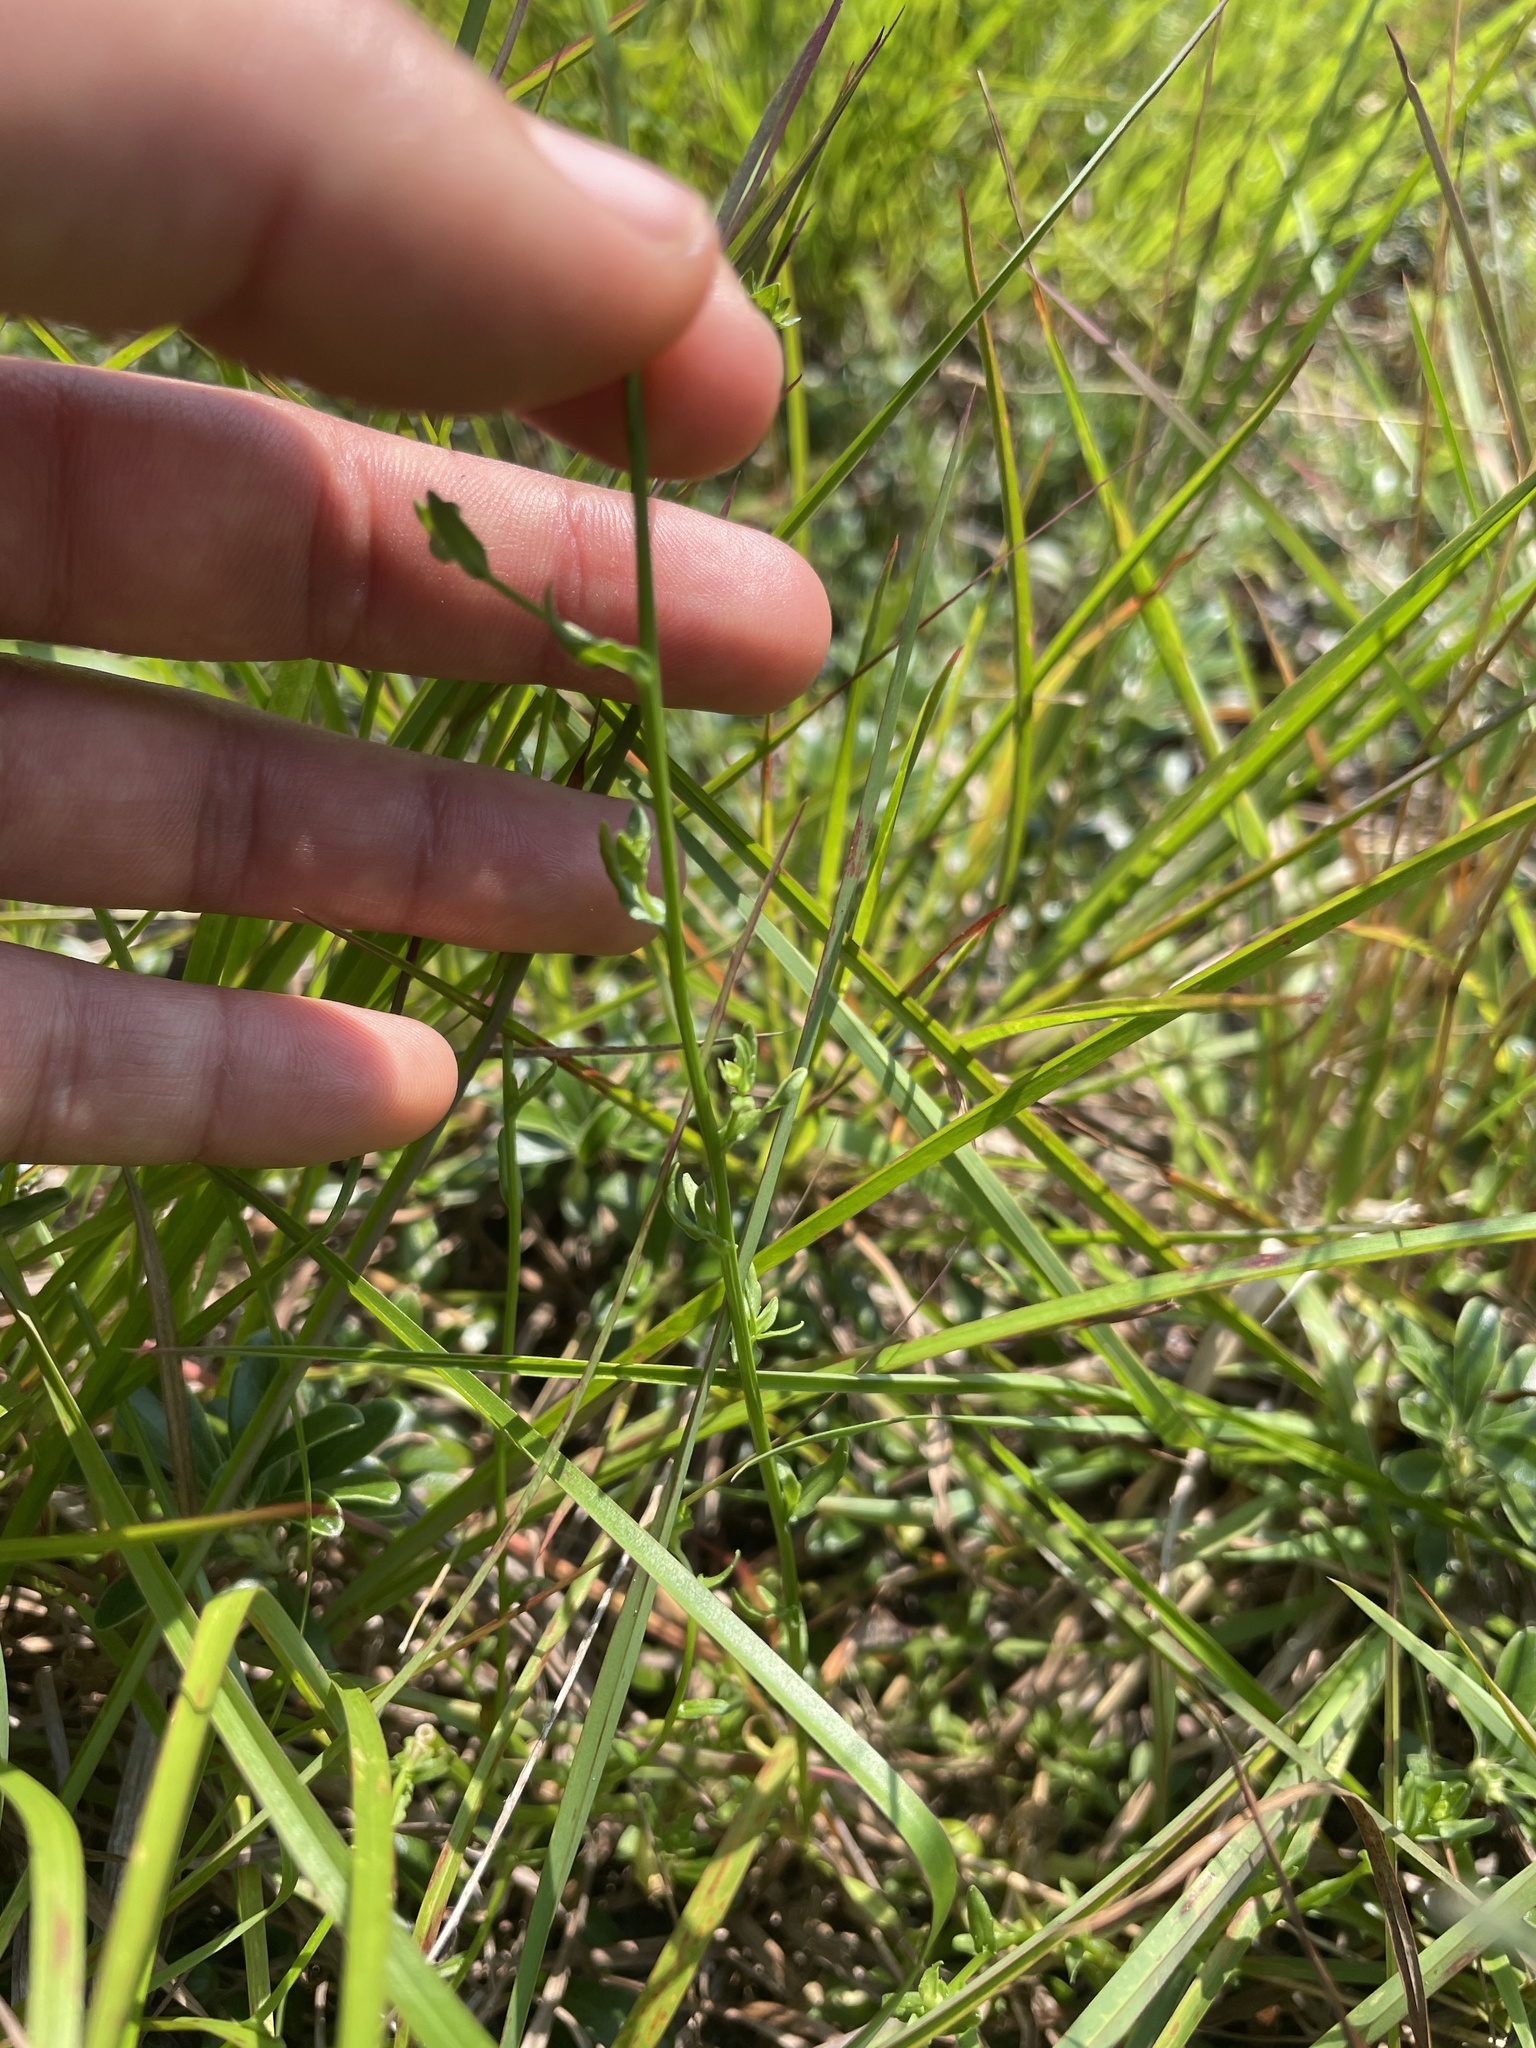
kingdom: Plantae
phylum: Tracheophyta
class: Magnoliopsida
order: Asterales
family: Campanulaceae
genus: Jasione
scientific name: Jasione montana
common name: Sheep's-bit
